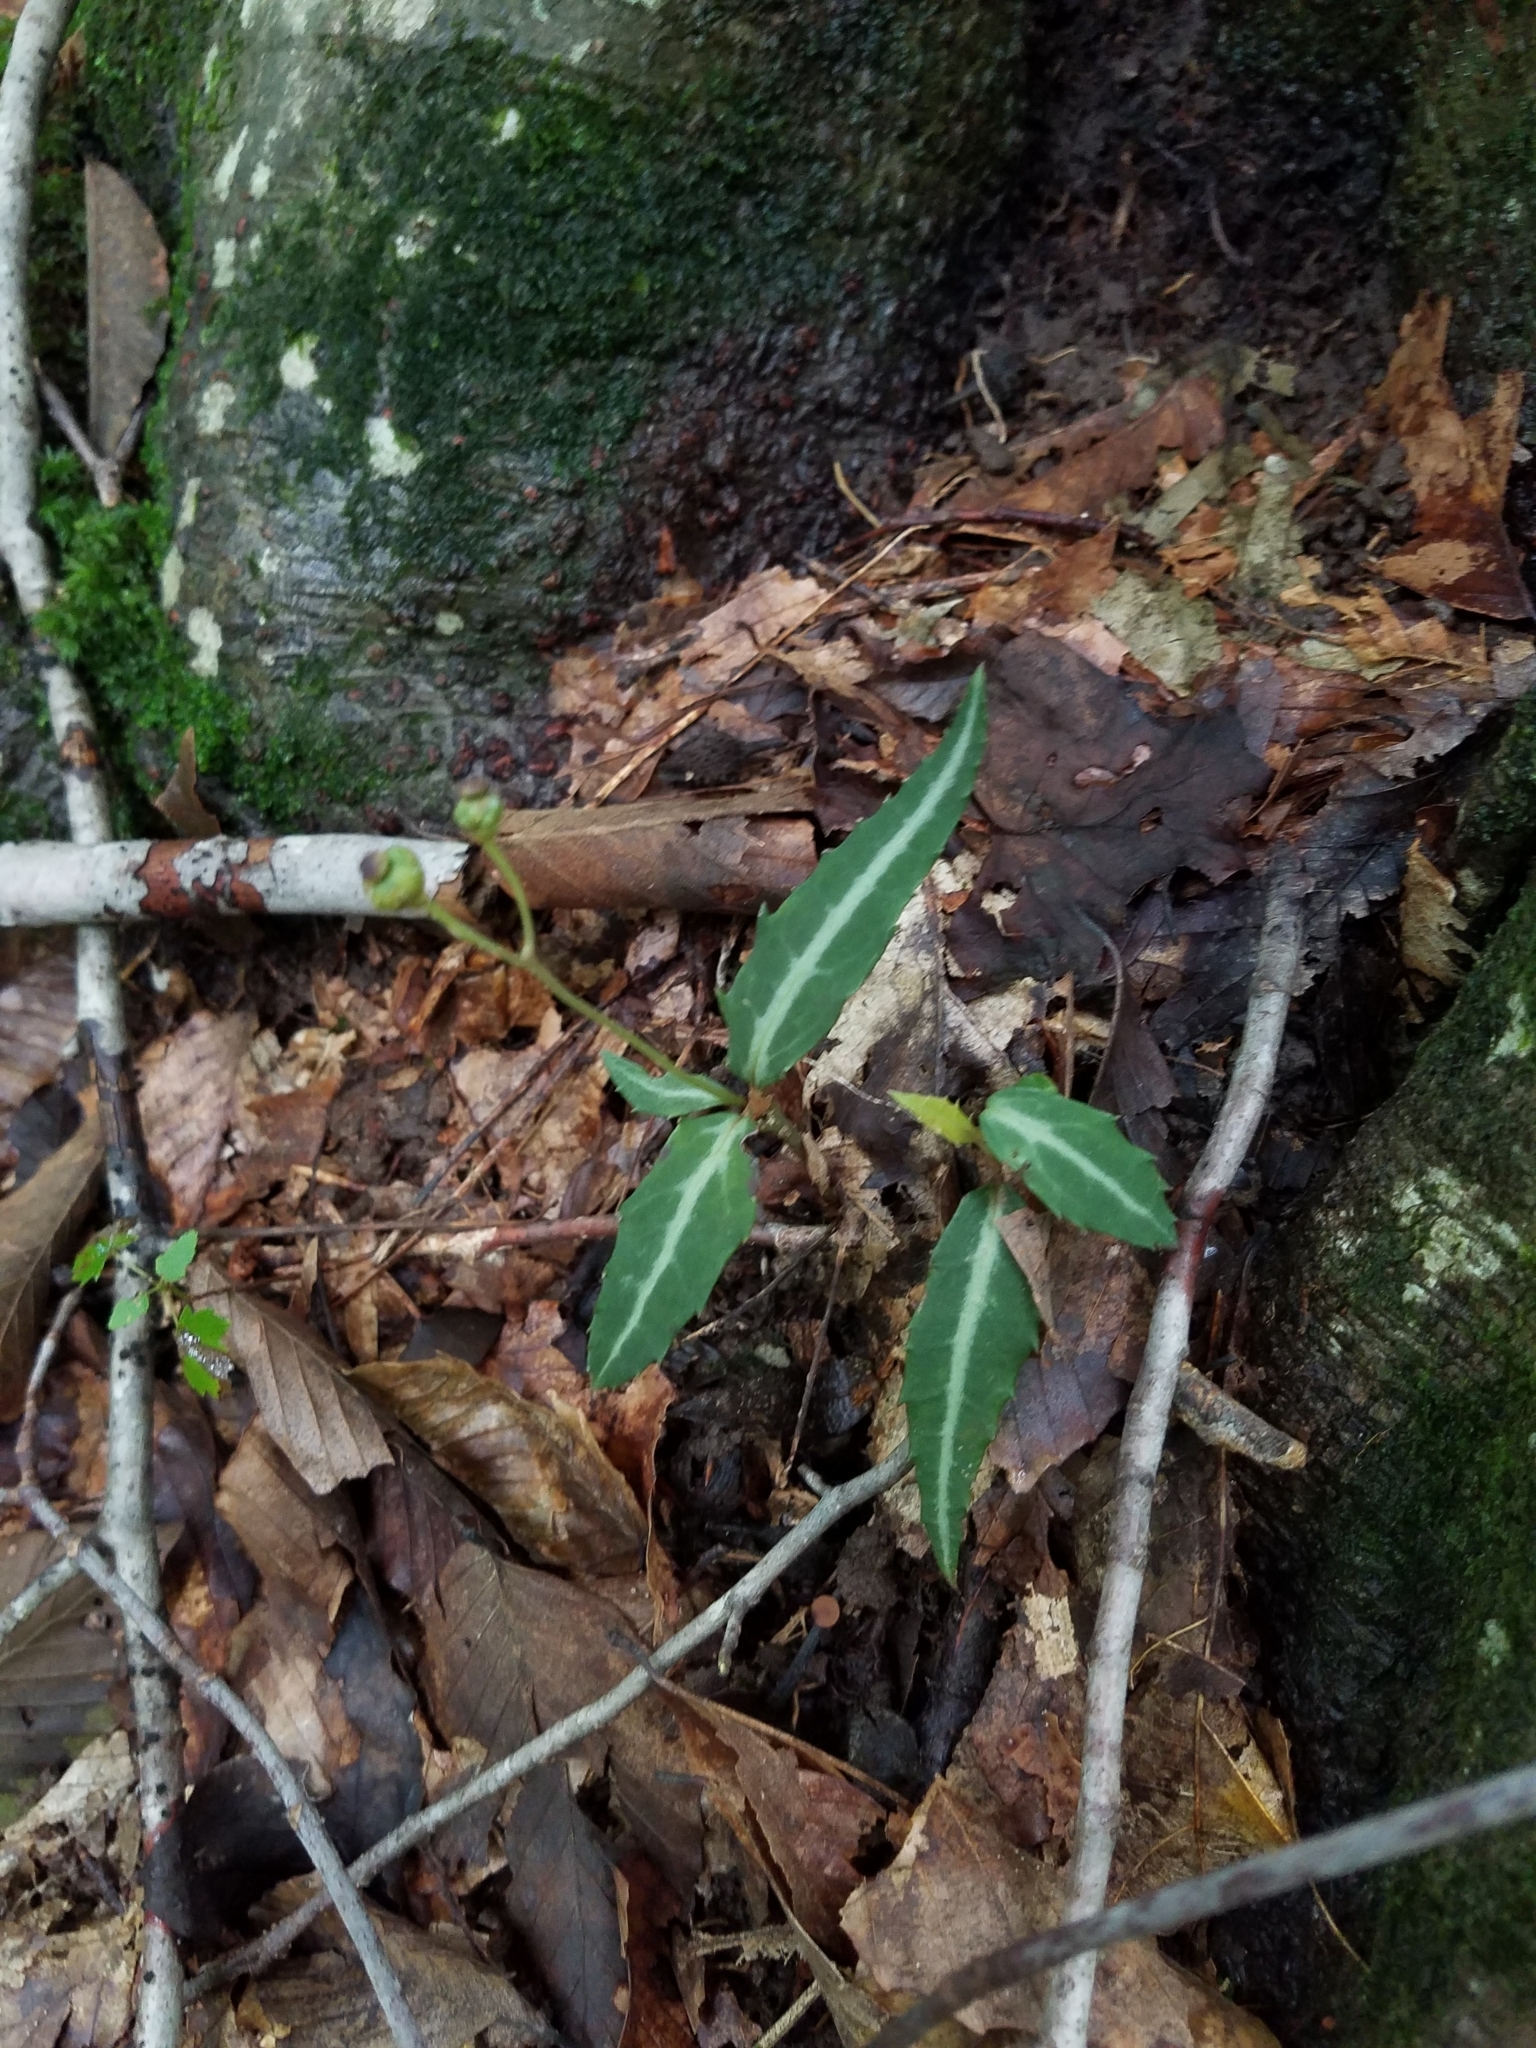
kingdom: Plantae
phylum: Tracheophyta
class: Magnoliopsida
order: Ericales
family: Ericaceae
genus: Chimaphila
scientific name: Chimaphila maculata
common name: Spotted pipsissewa
